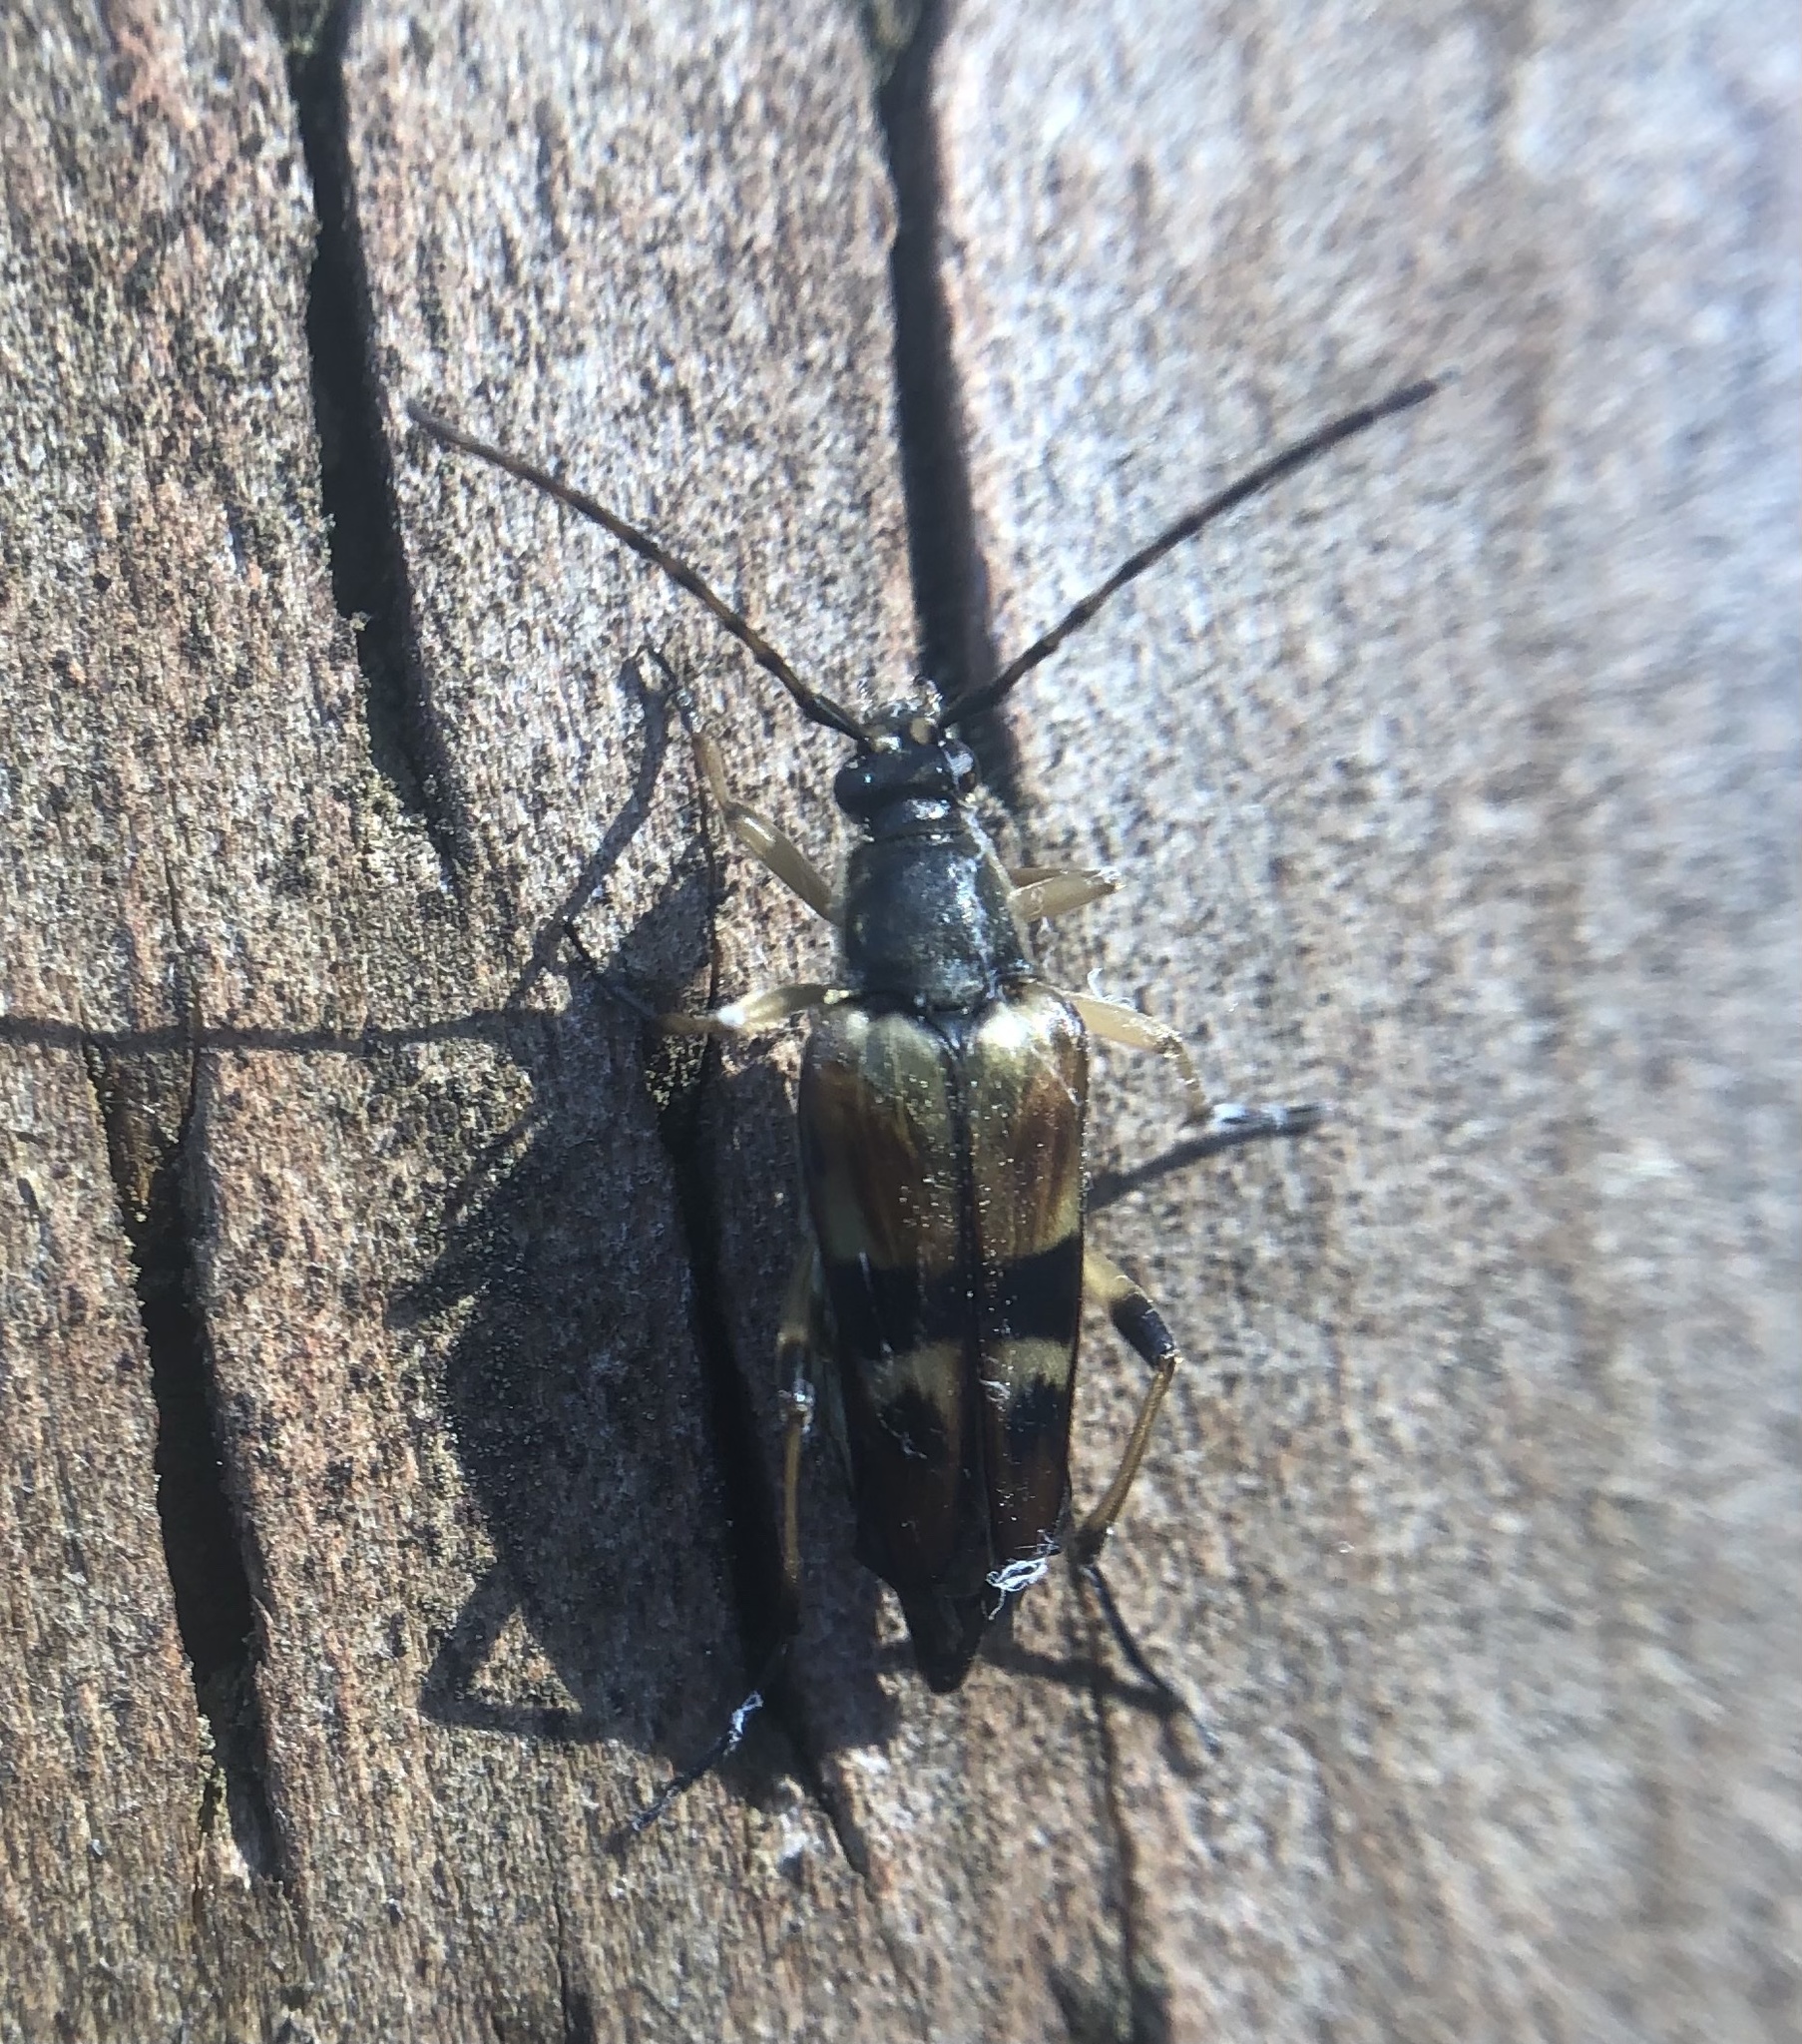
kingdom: Animalia
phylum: Arthropoda
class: Insecta
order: Coleoptera
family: Cerambycidae
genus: Etorofus
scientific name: Etorofus obliteratus
